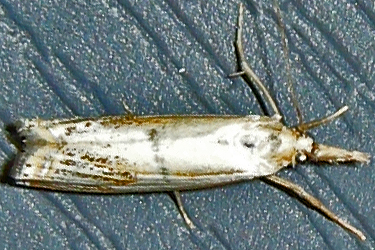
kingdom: Animalia
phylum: Arthropoda
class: Insecta
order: Lepidoptera
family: Crambidae
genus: Crambus
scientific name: Crambus agitatellus
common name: Double-banded grass-veneer
